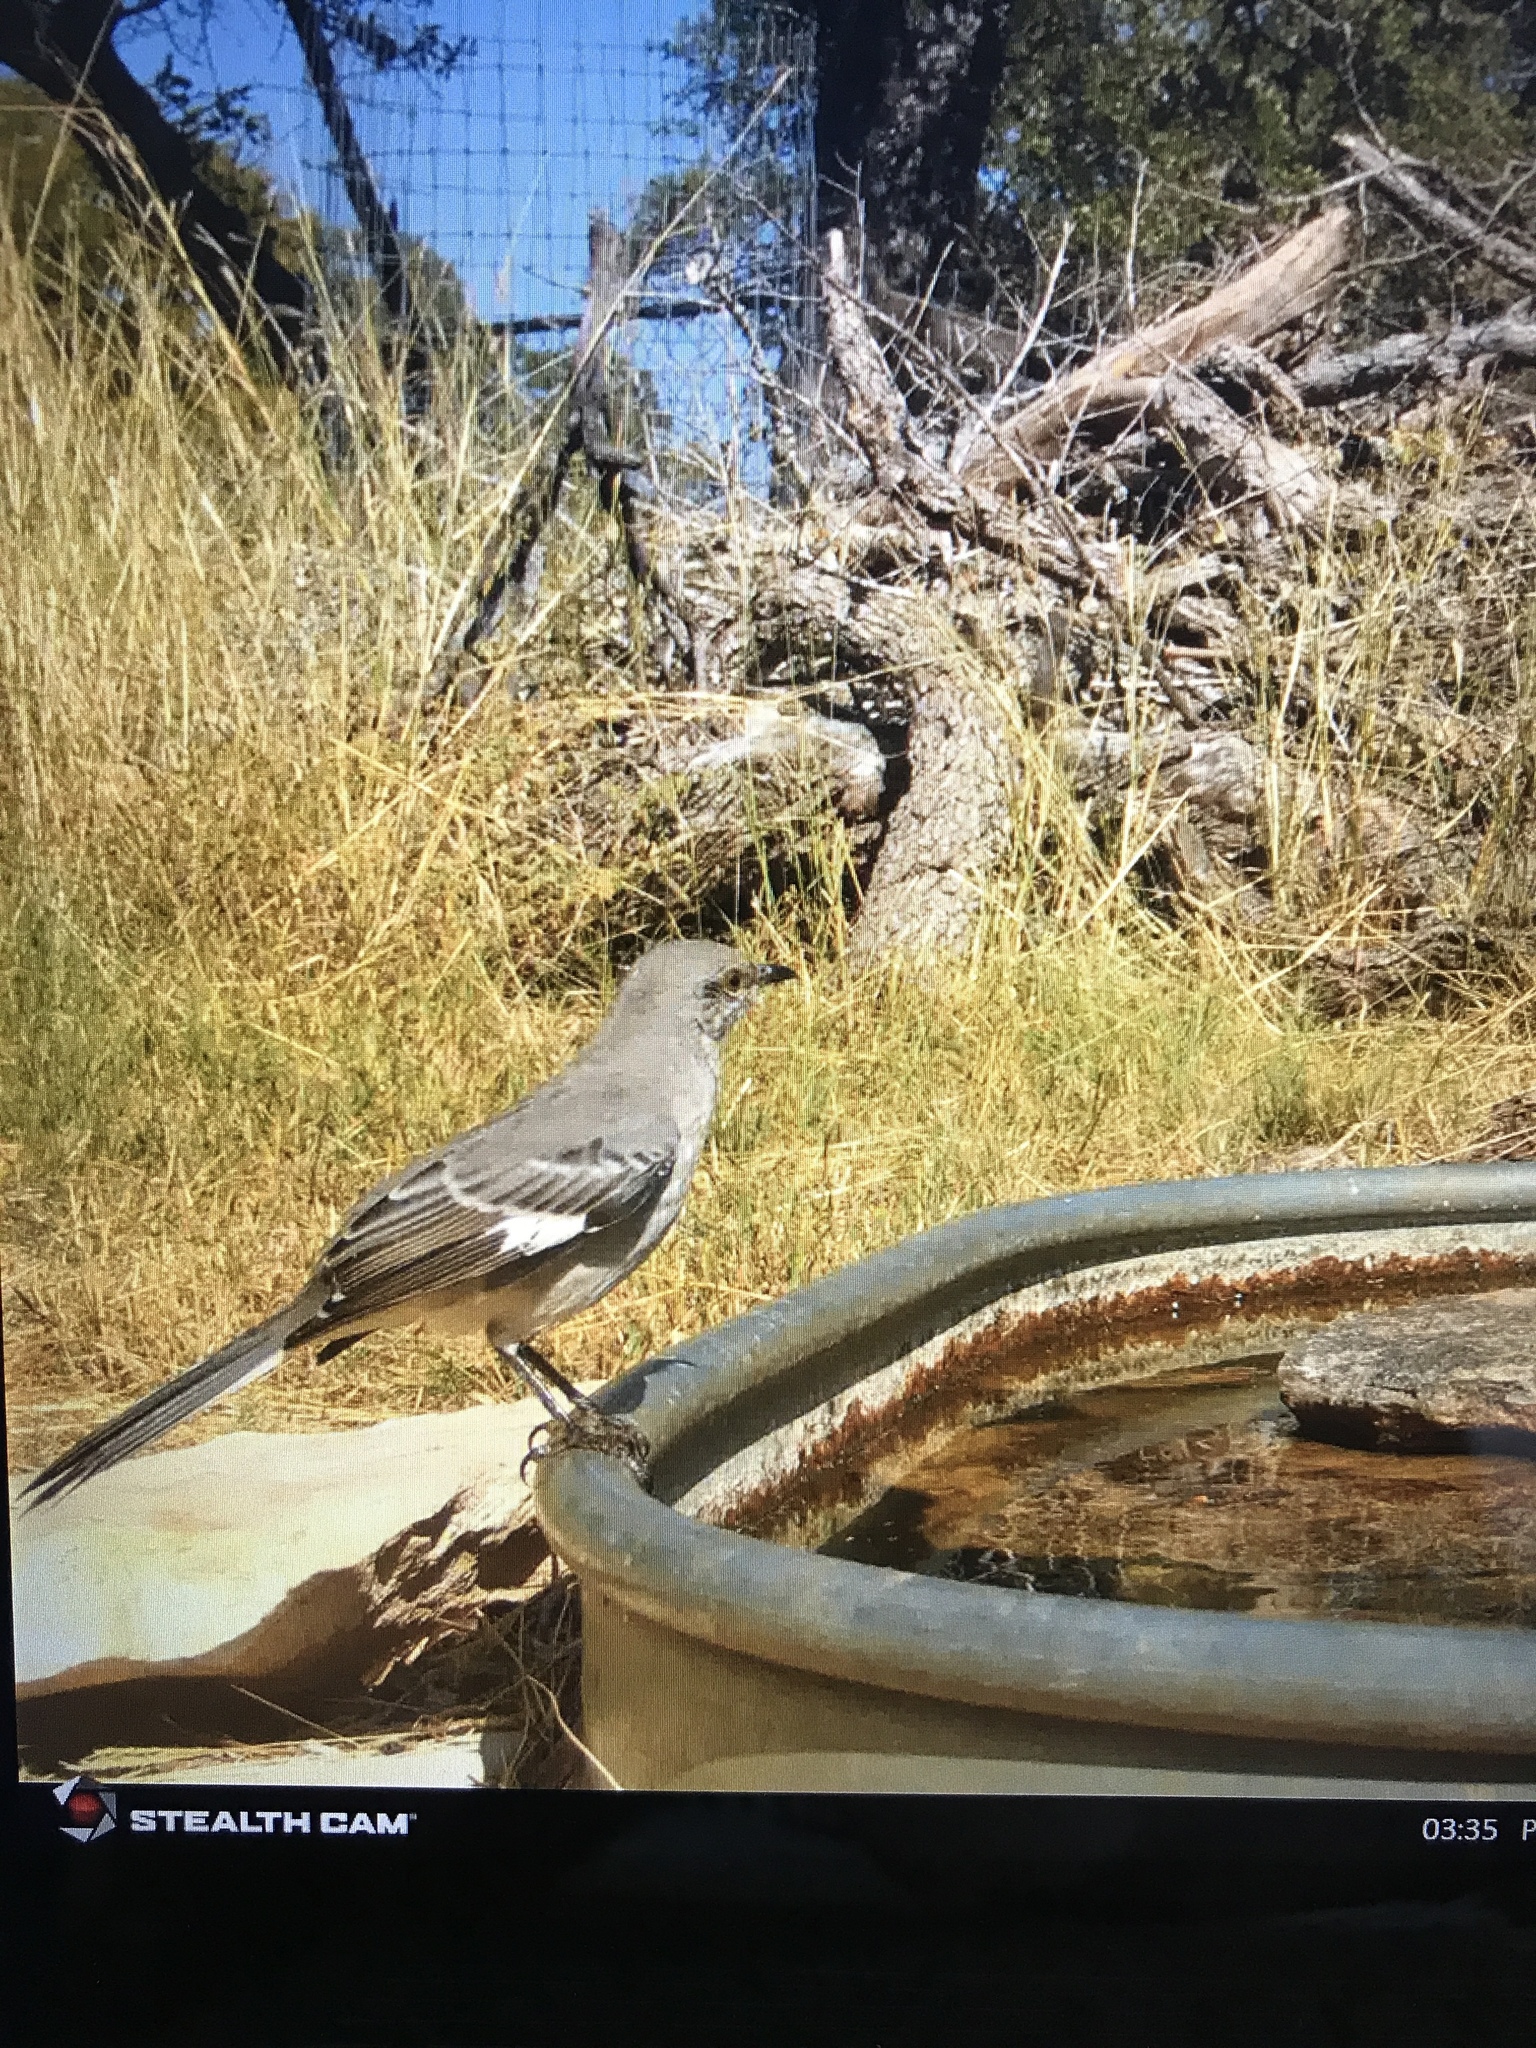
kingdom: Animalia
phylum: Chordata
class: Aves
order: Passeriformes
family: Mimidae
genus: Mimus
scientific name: Mimus polyglottos
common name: Northern mockingbird
